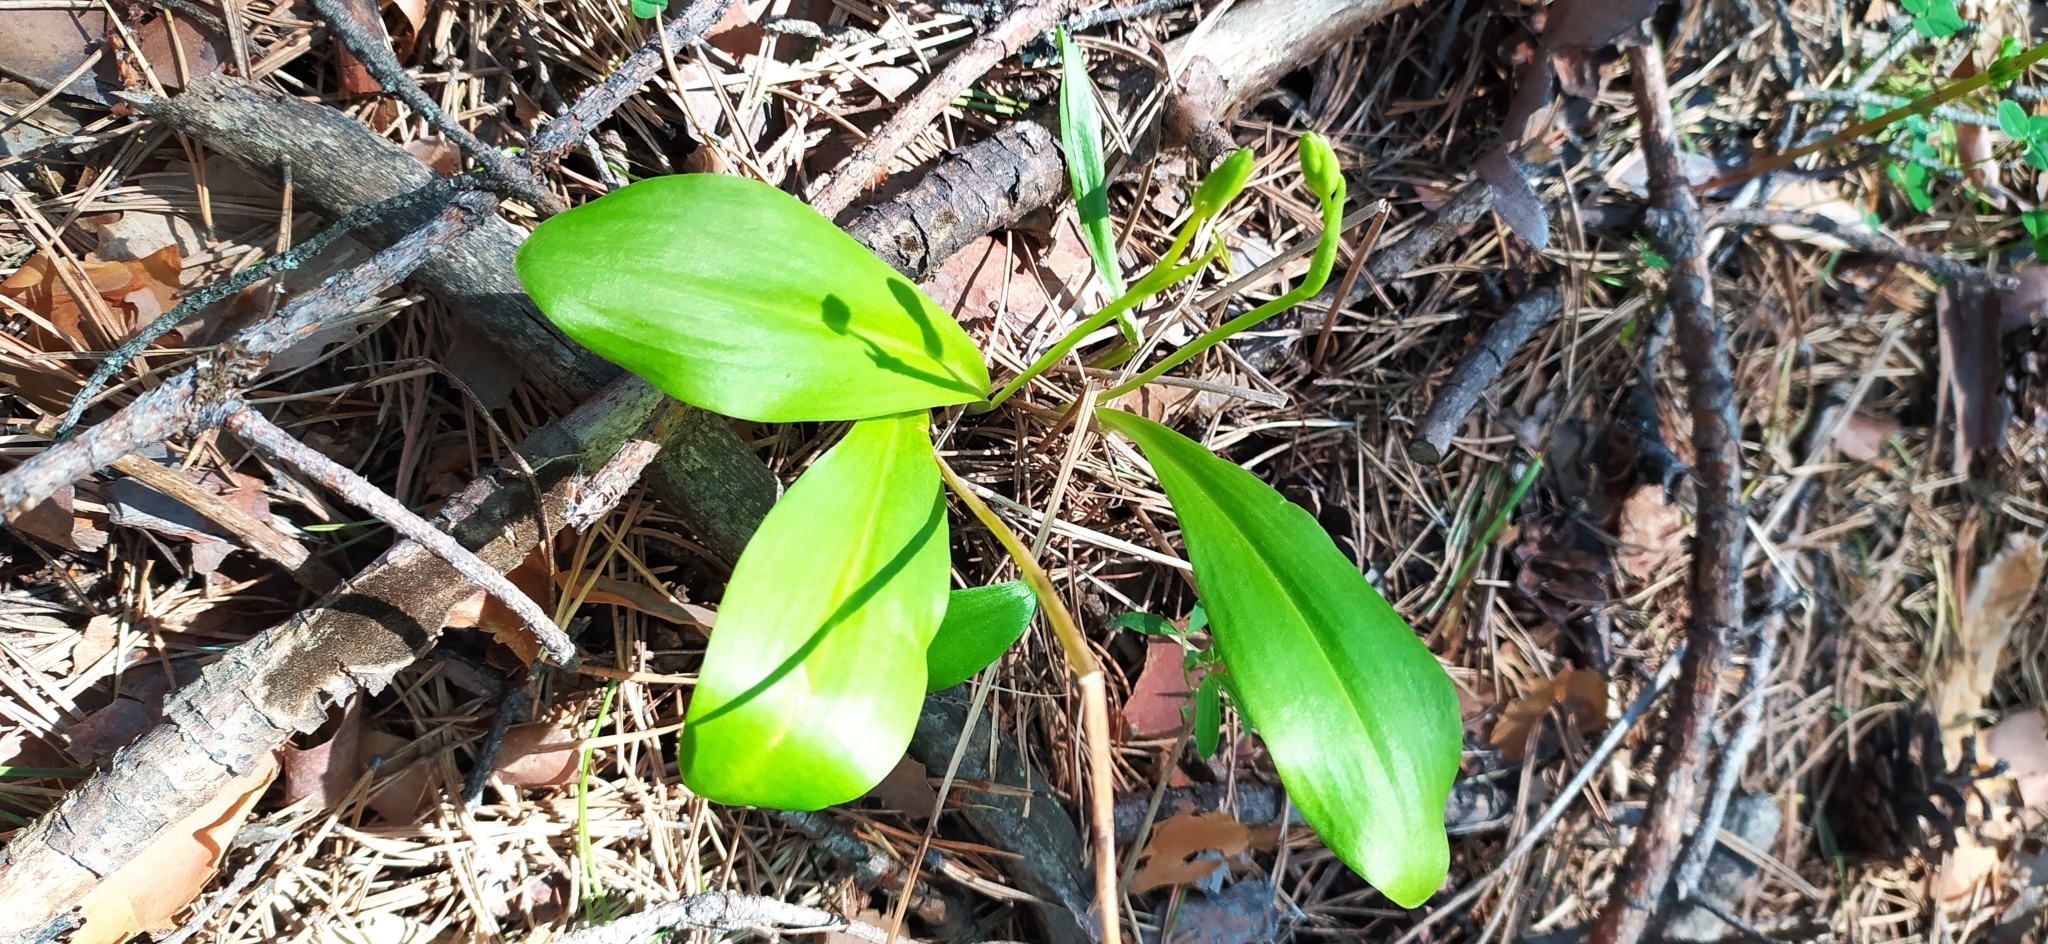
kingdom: Plantae
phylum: Tracheophyta
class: Liliopsida
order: Asparagales
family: Orchidaceae
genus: Platanthera
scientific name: Platanthera bifolia
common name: Lesser butterfly-orchid
